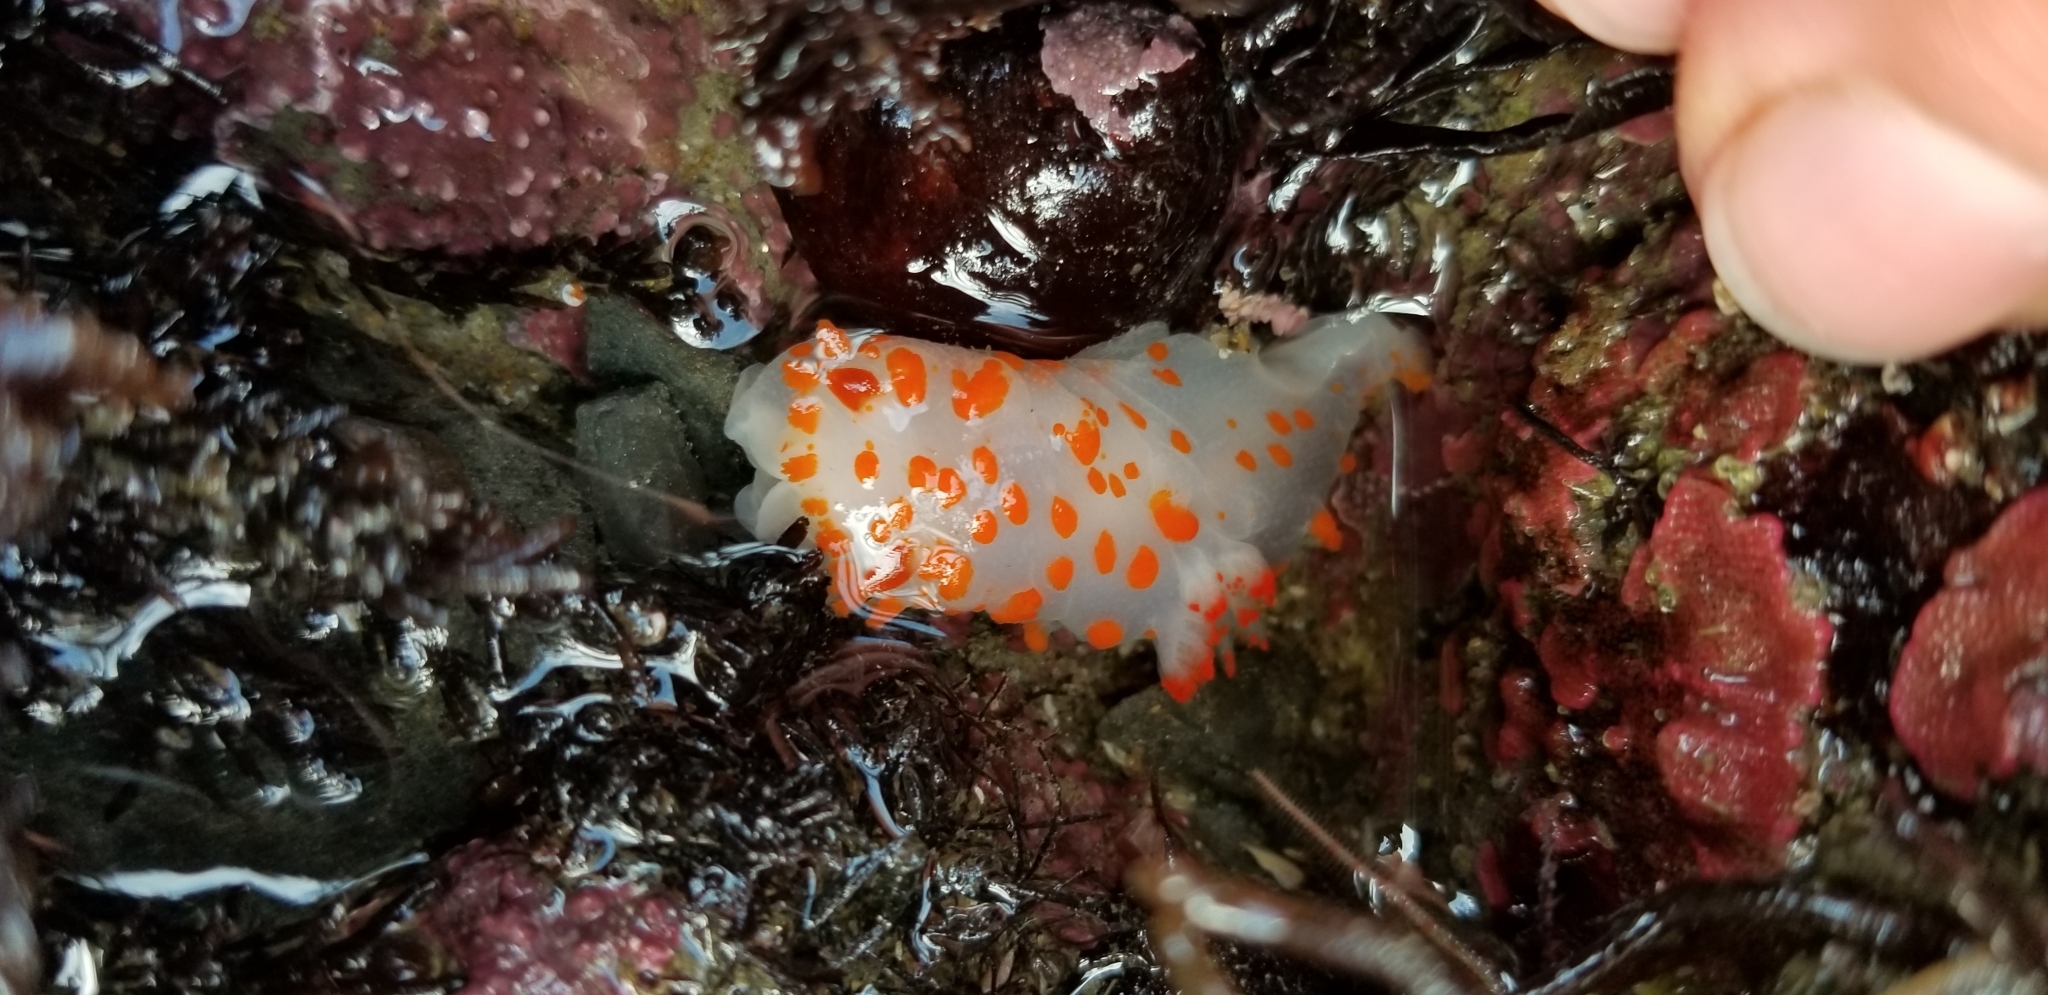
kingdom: Animalia
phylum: Mollusca
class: Gastropoda
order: Nudibranchia
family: Polyceridae
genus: Triopha
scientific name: Triopha catalinae
